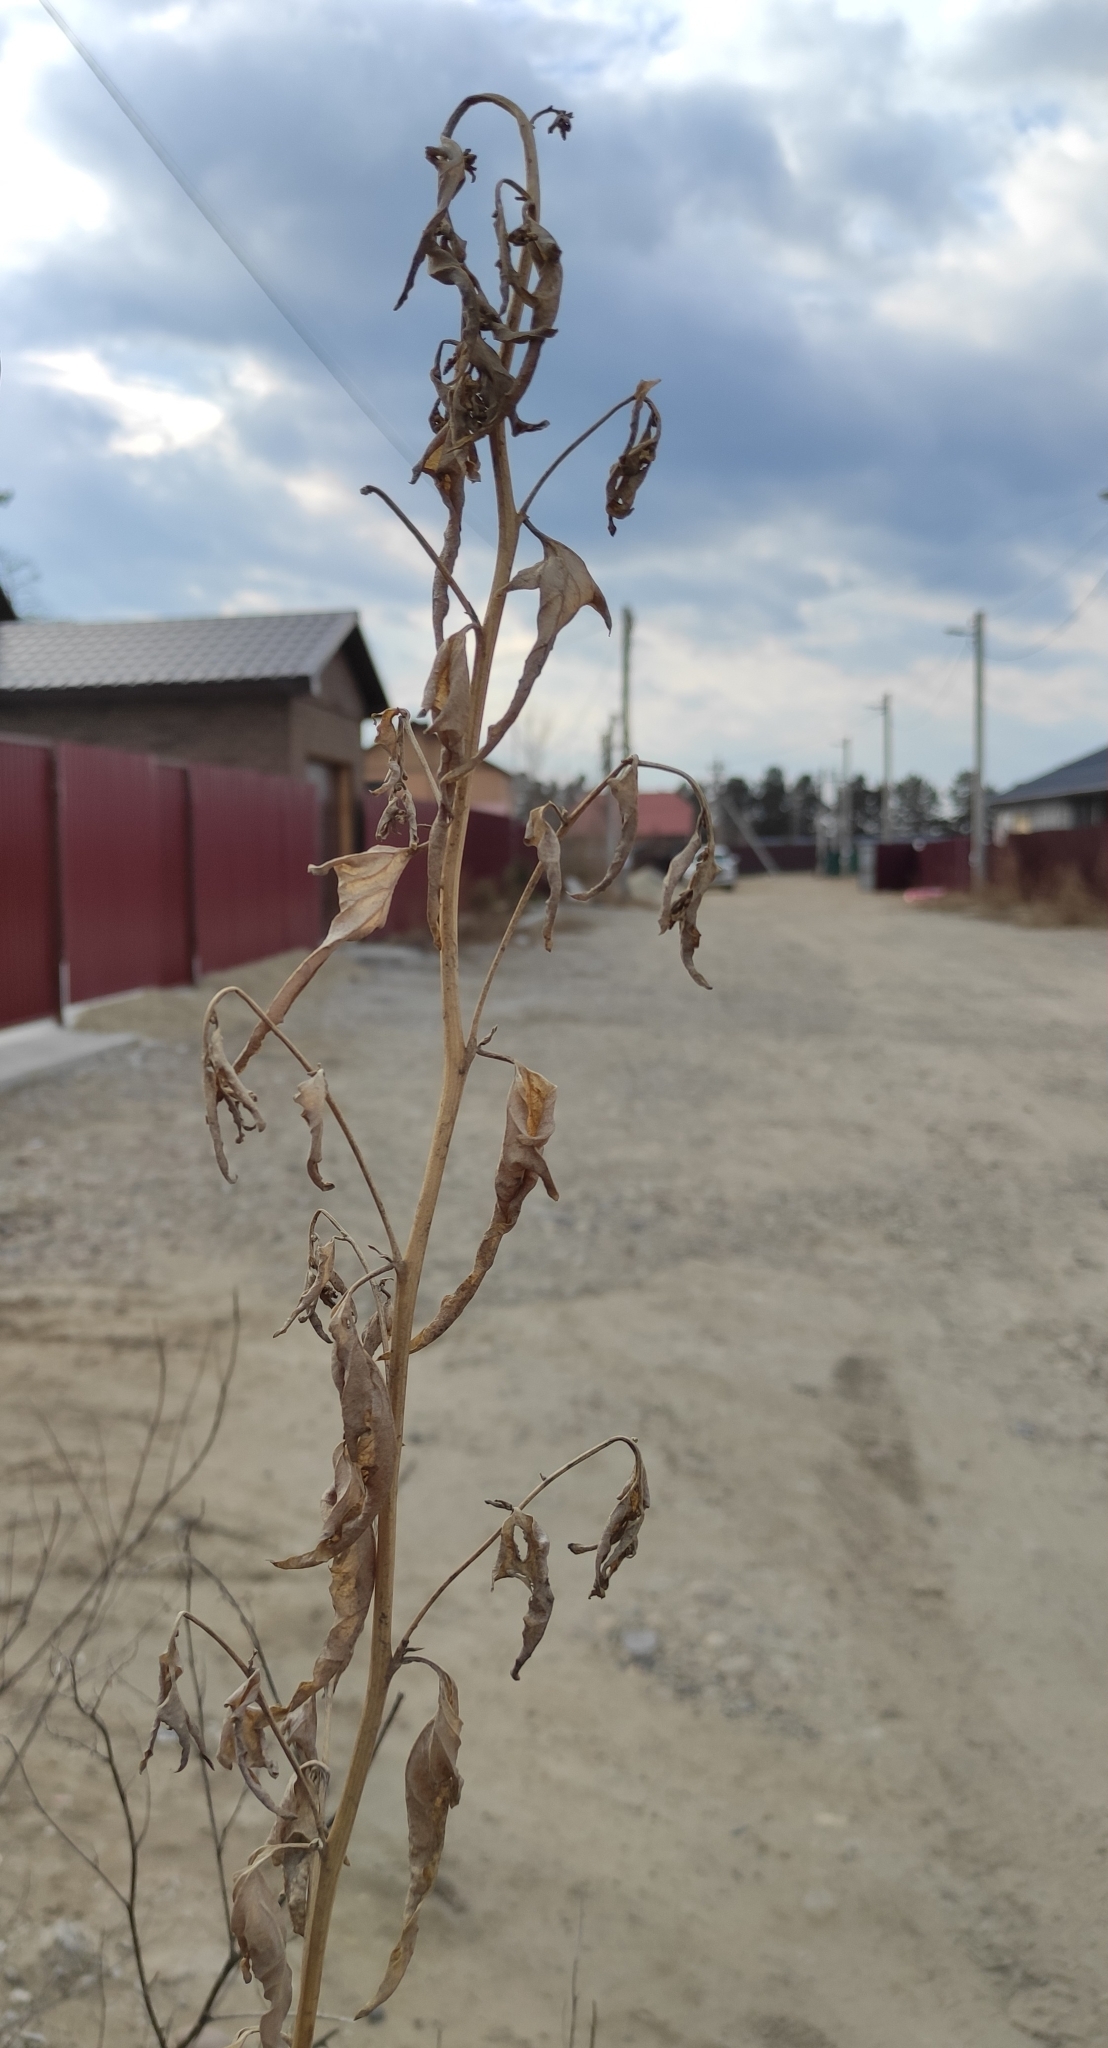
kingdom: Plantae
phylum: Tracheophyta
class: Magnoliopsida
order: Caryophyllales
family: Amaranthaceae
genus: Atriplex
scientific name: Atriplex sagittata
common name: Purple orache
